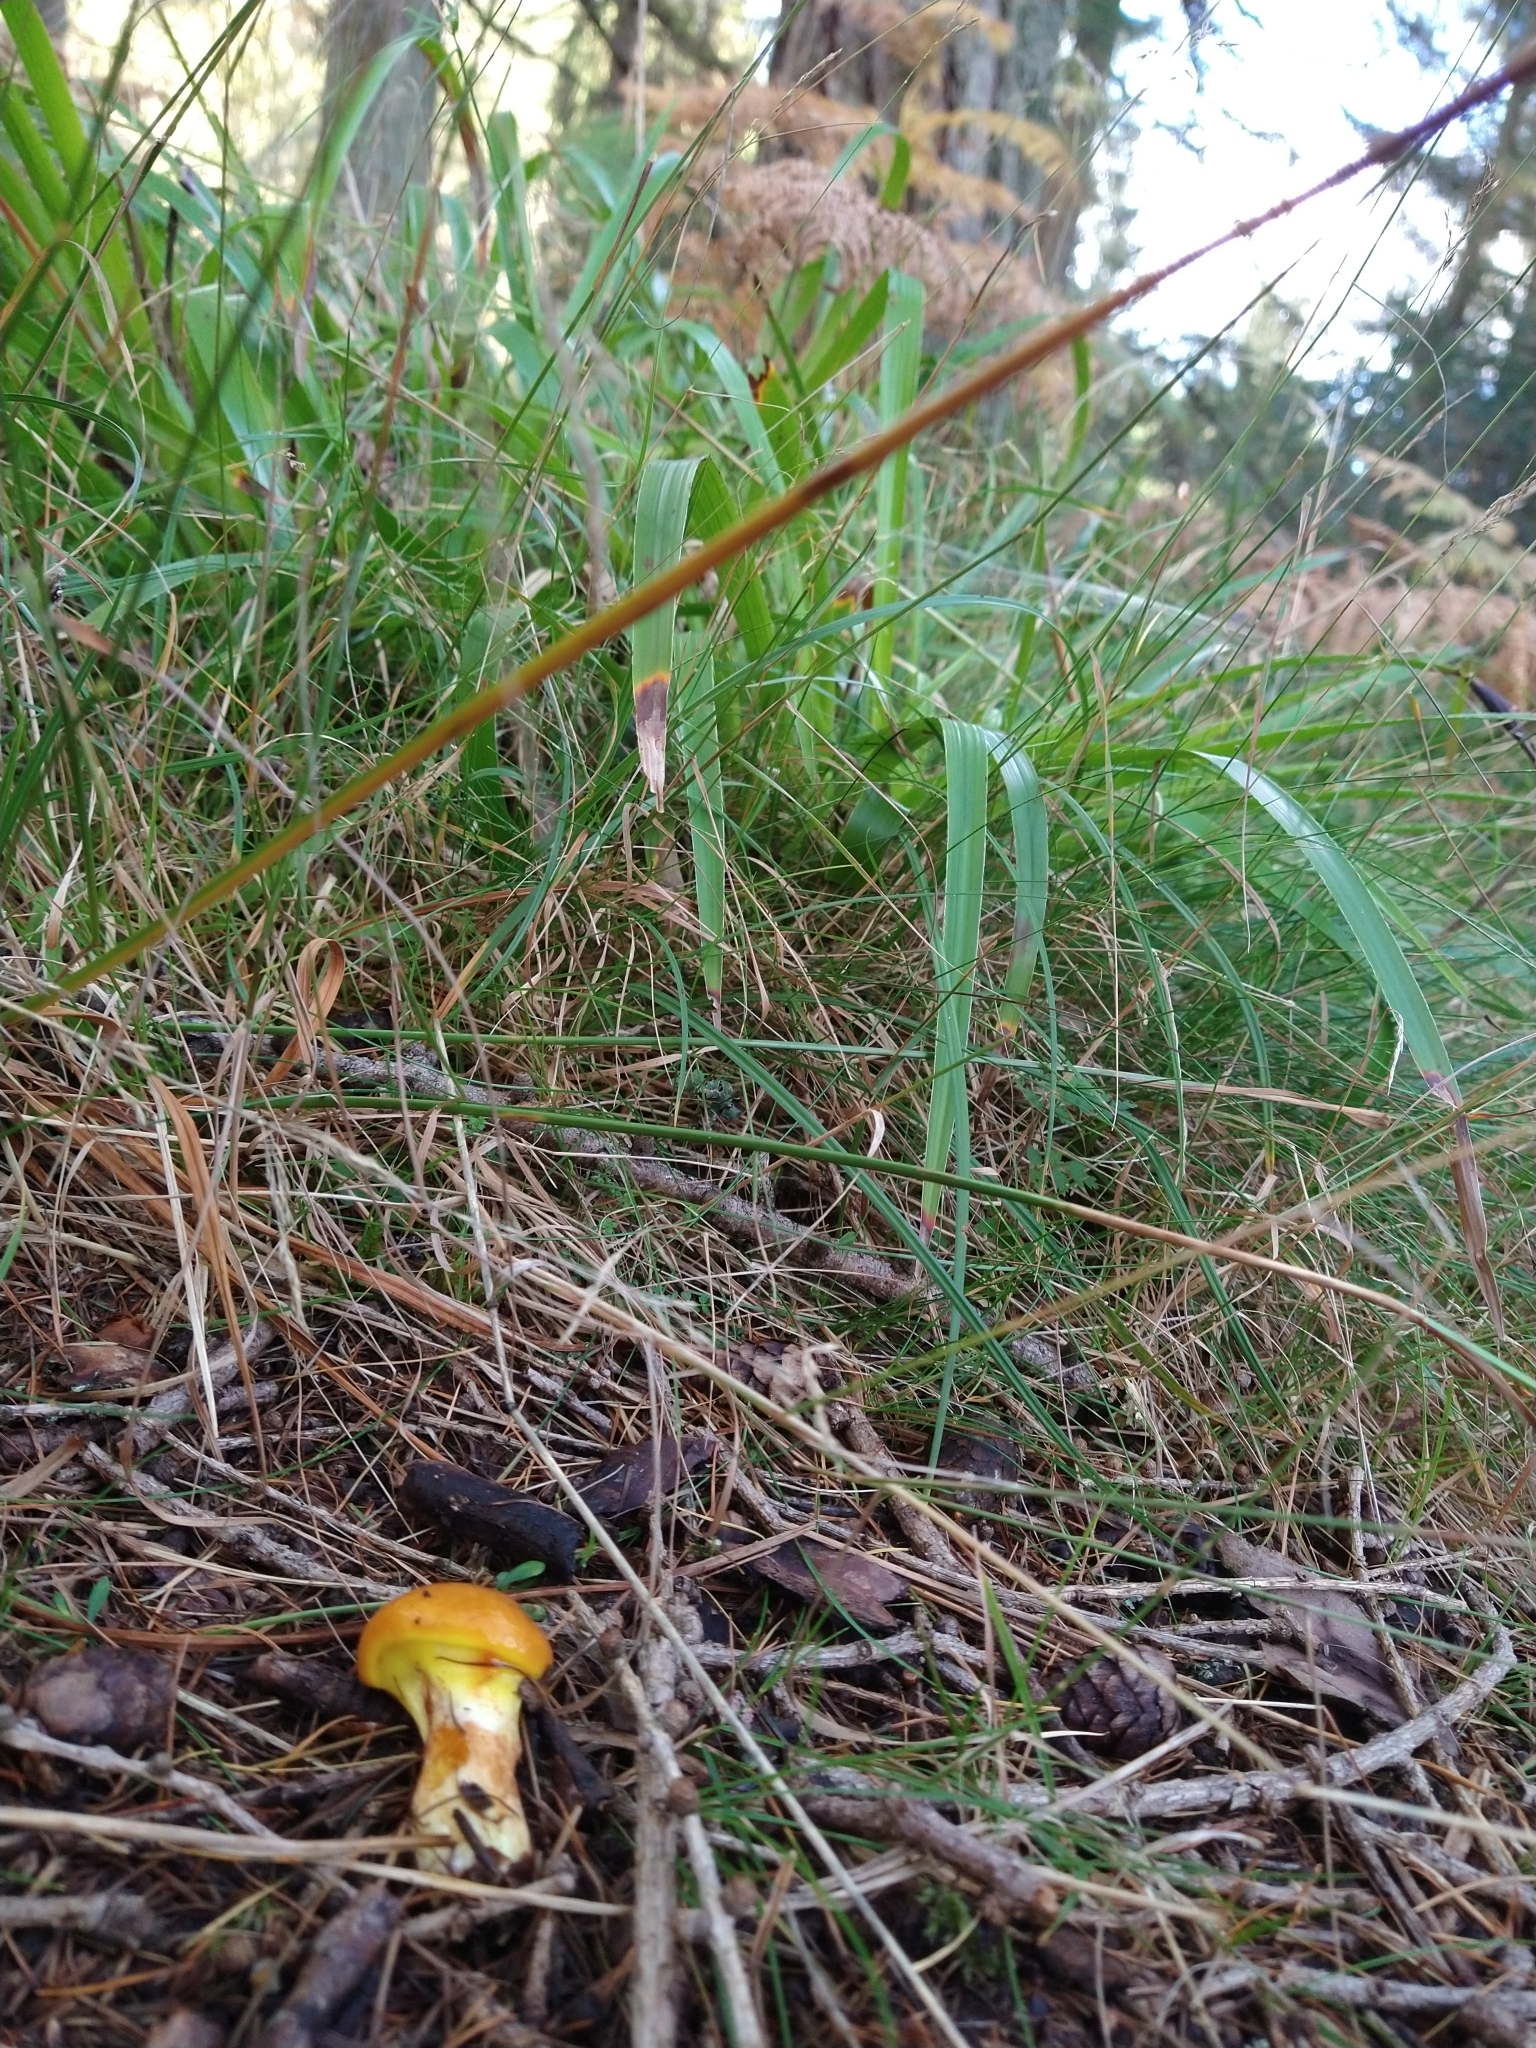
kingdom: Fungi
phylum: Basidiomycota
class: Agaricomycetes
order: Boletales
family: Suillaceae
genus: Suillus
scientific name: Suillus grevillei
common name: Larch bolete
